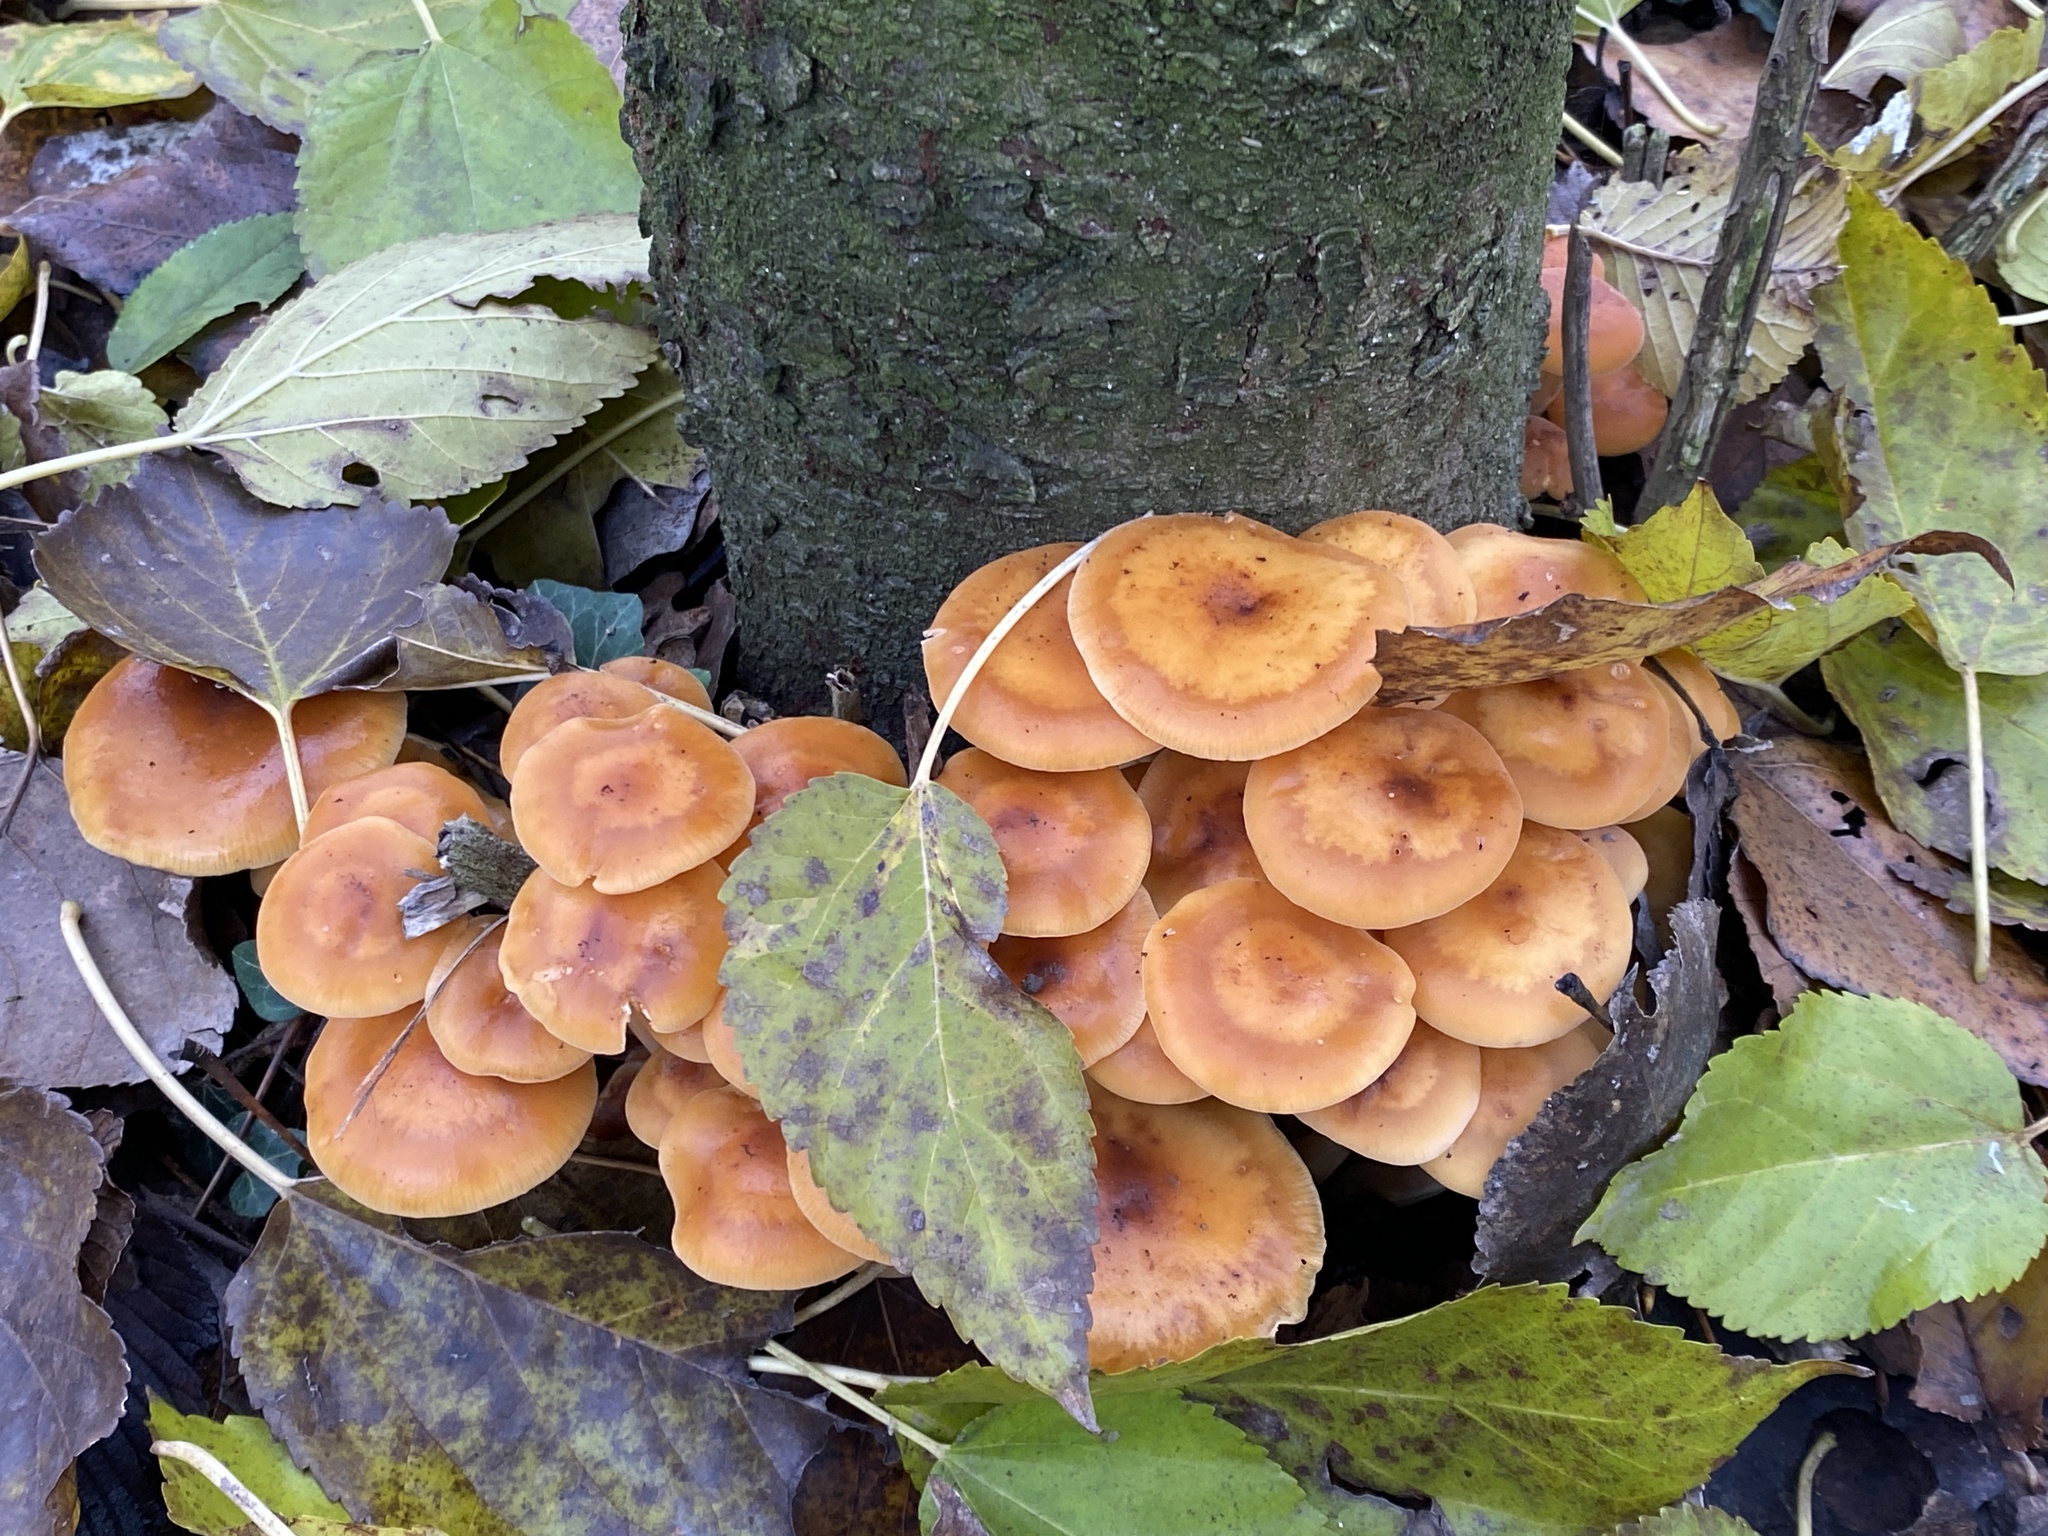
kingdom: Fungi
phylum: Basidiomycota
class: Agaricomycetes
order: Agaricales
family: Physalacriaceae
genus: Flammulina
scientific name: Flammulina
